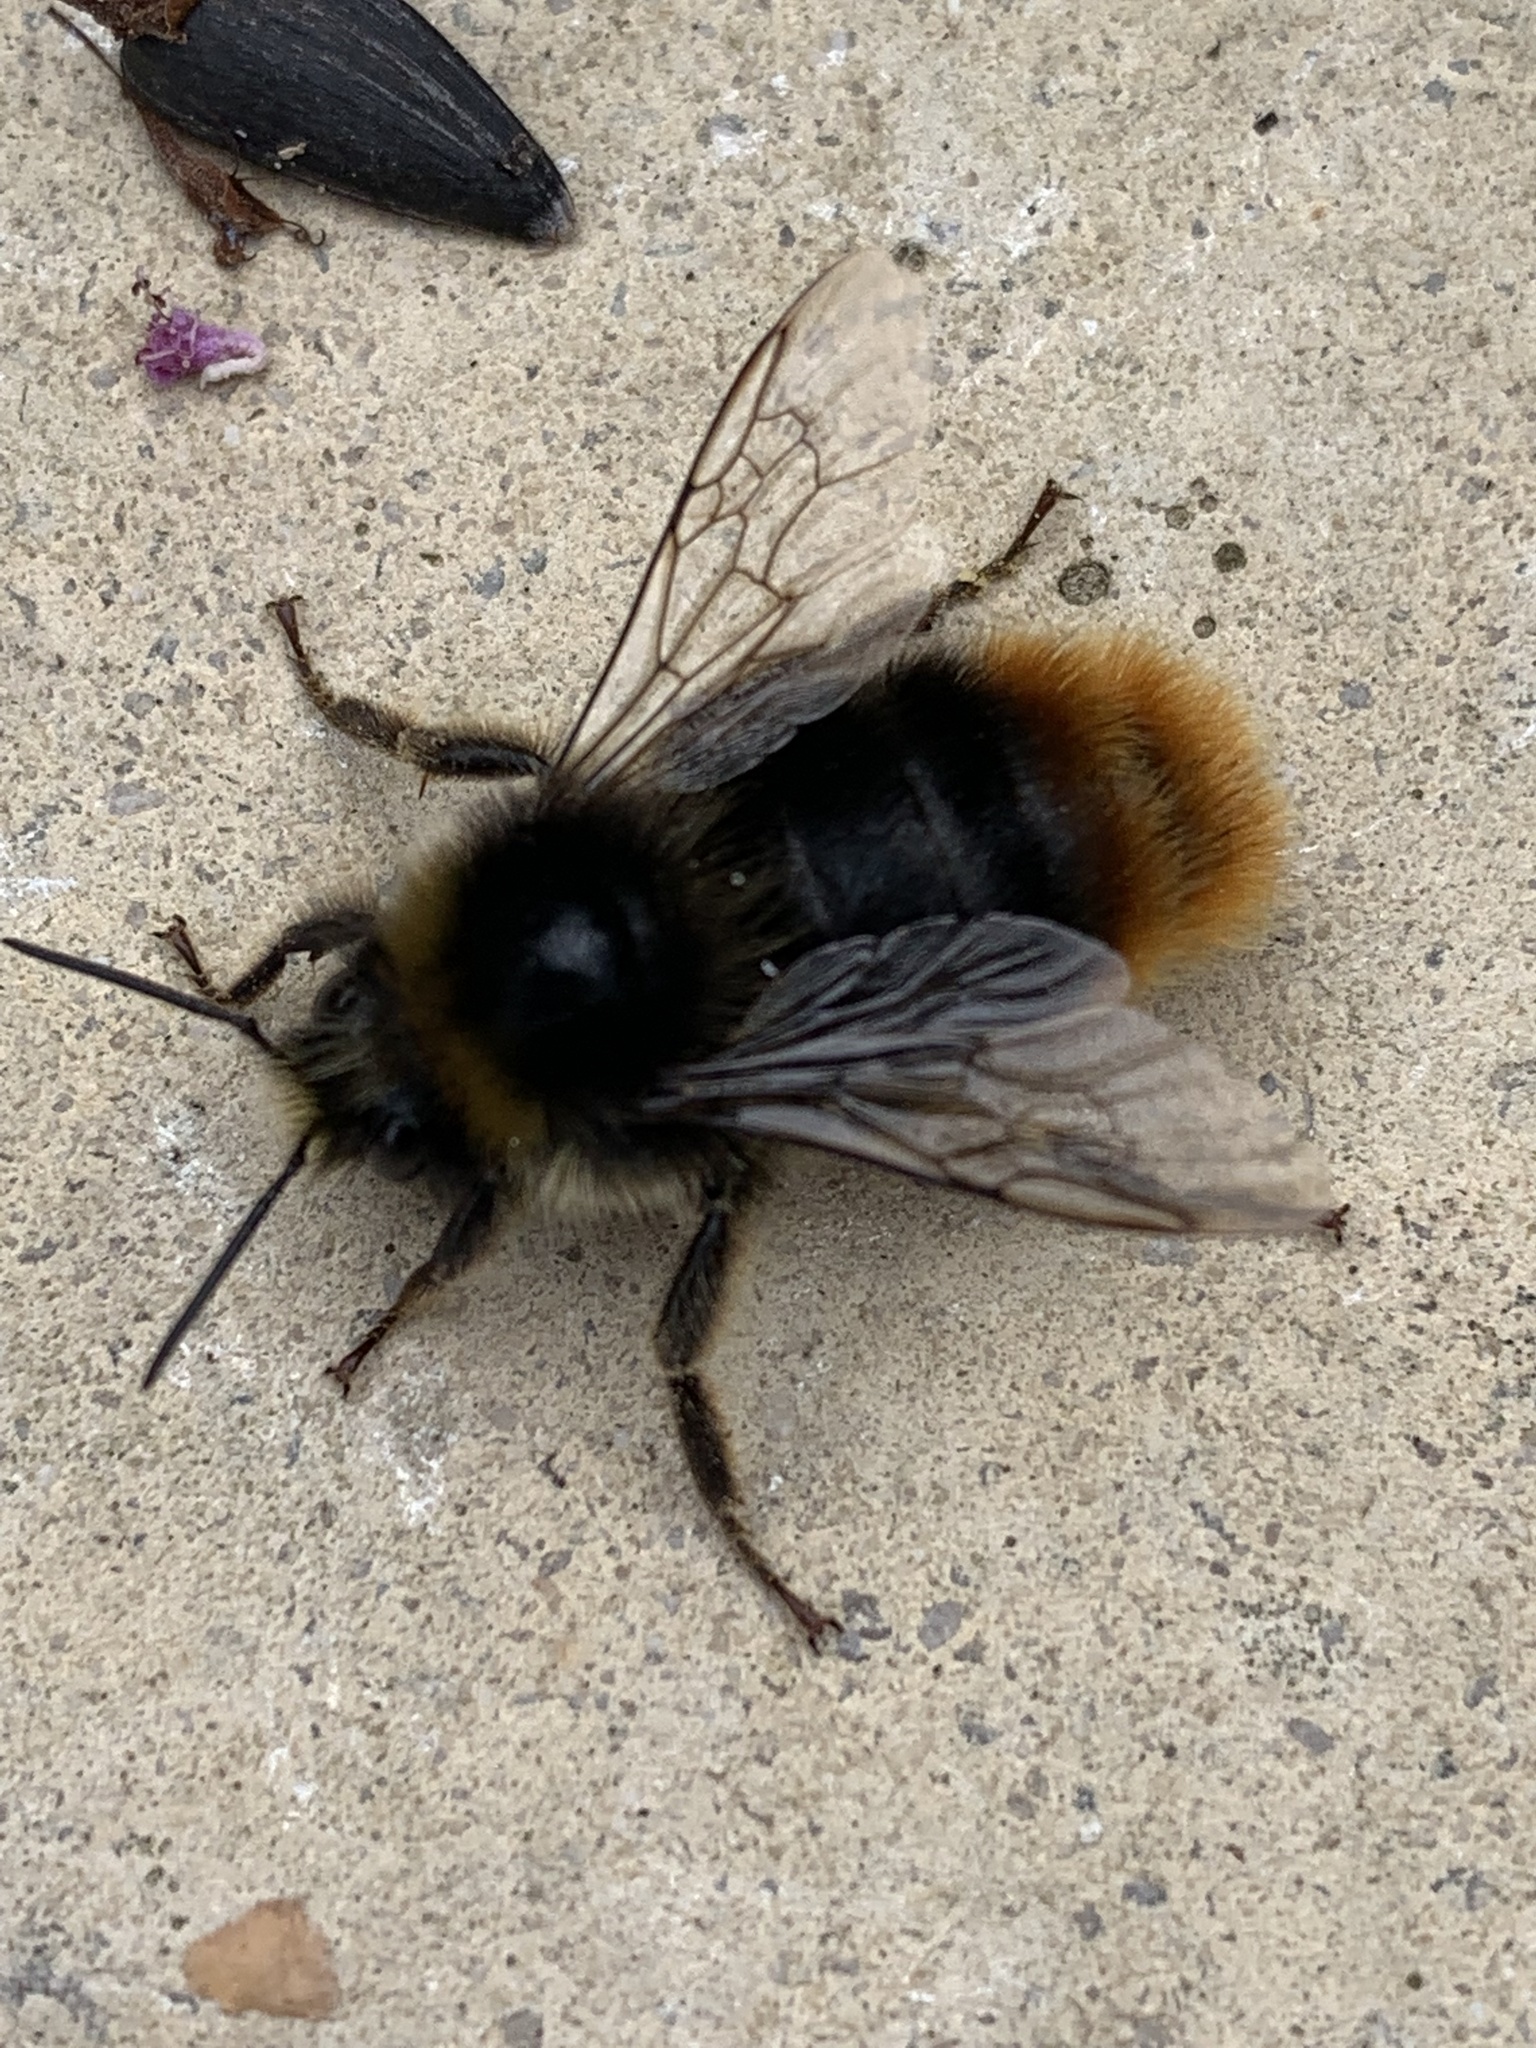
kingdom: Animalia
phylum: Arthropoda
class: Insecta
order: Hymenoptera
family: Apidae
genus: Bombus
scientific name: Bombus lapidarius
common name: Large red-tailed humble-bee
